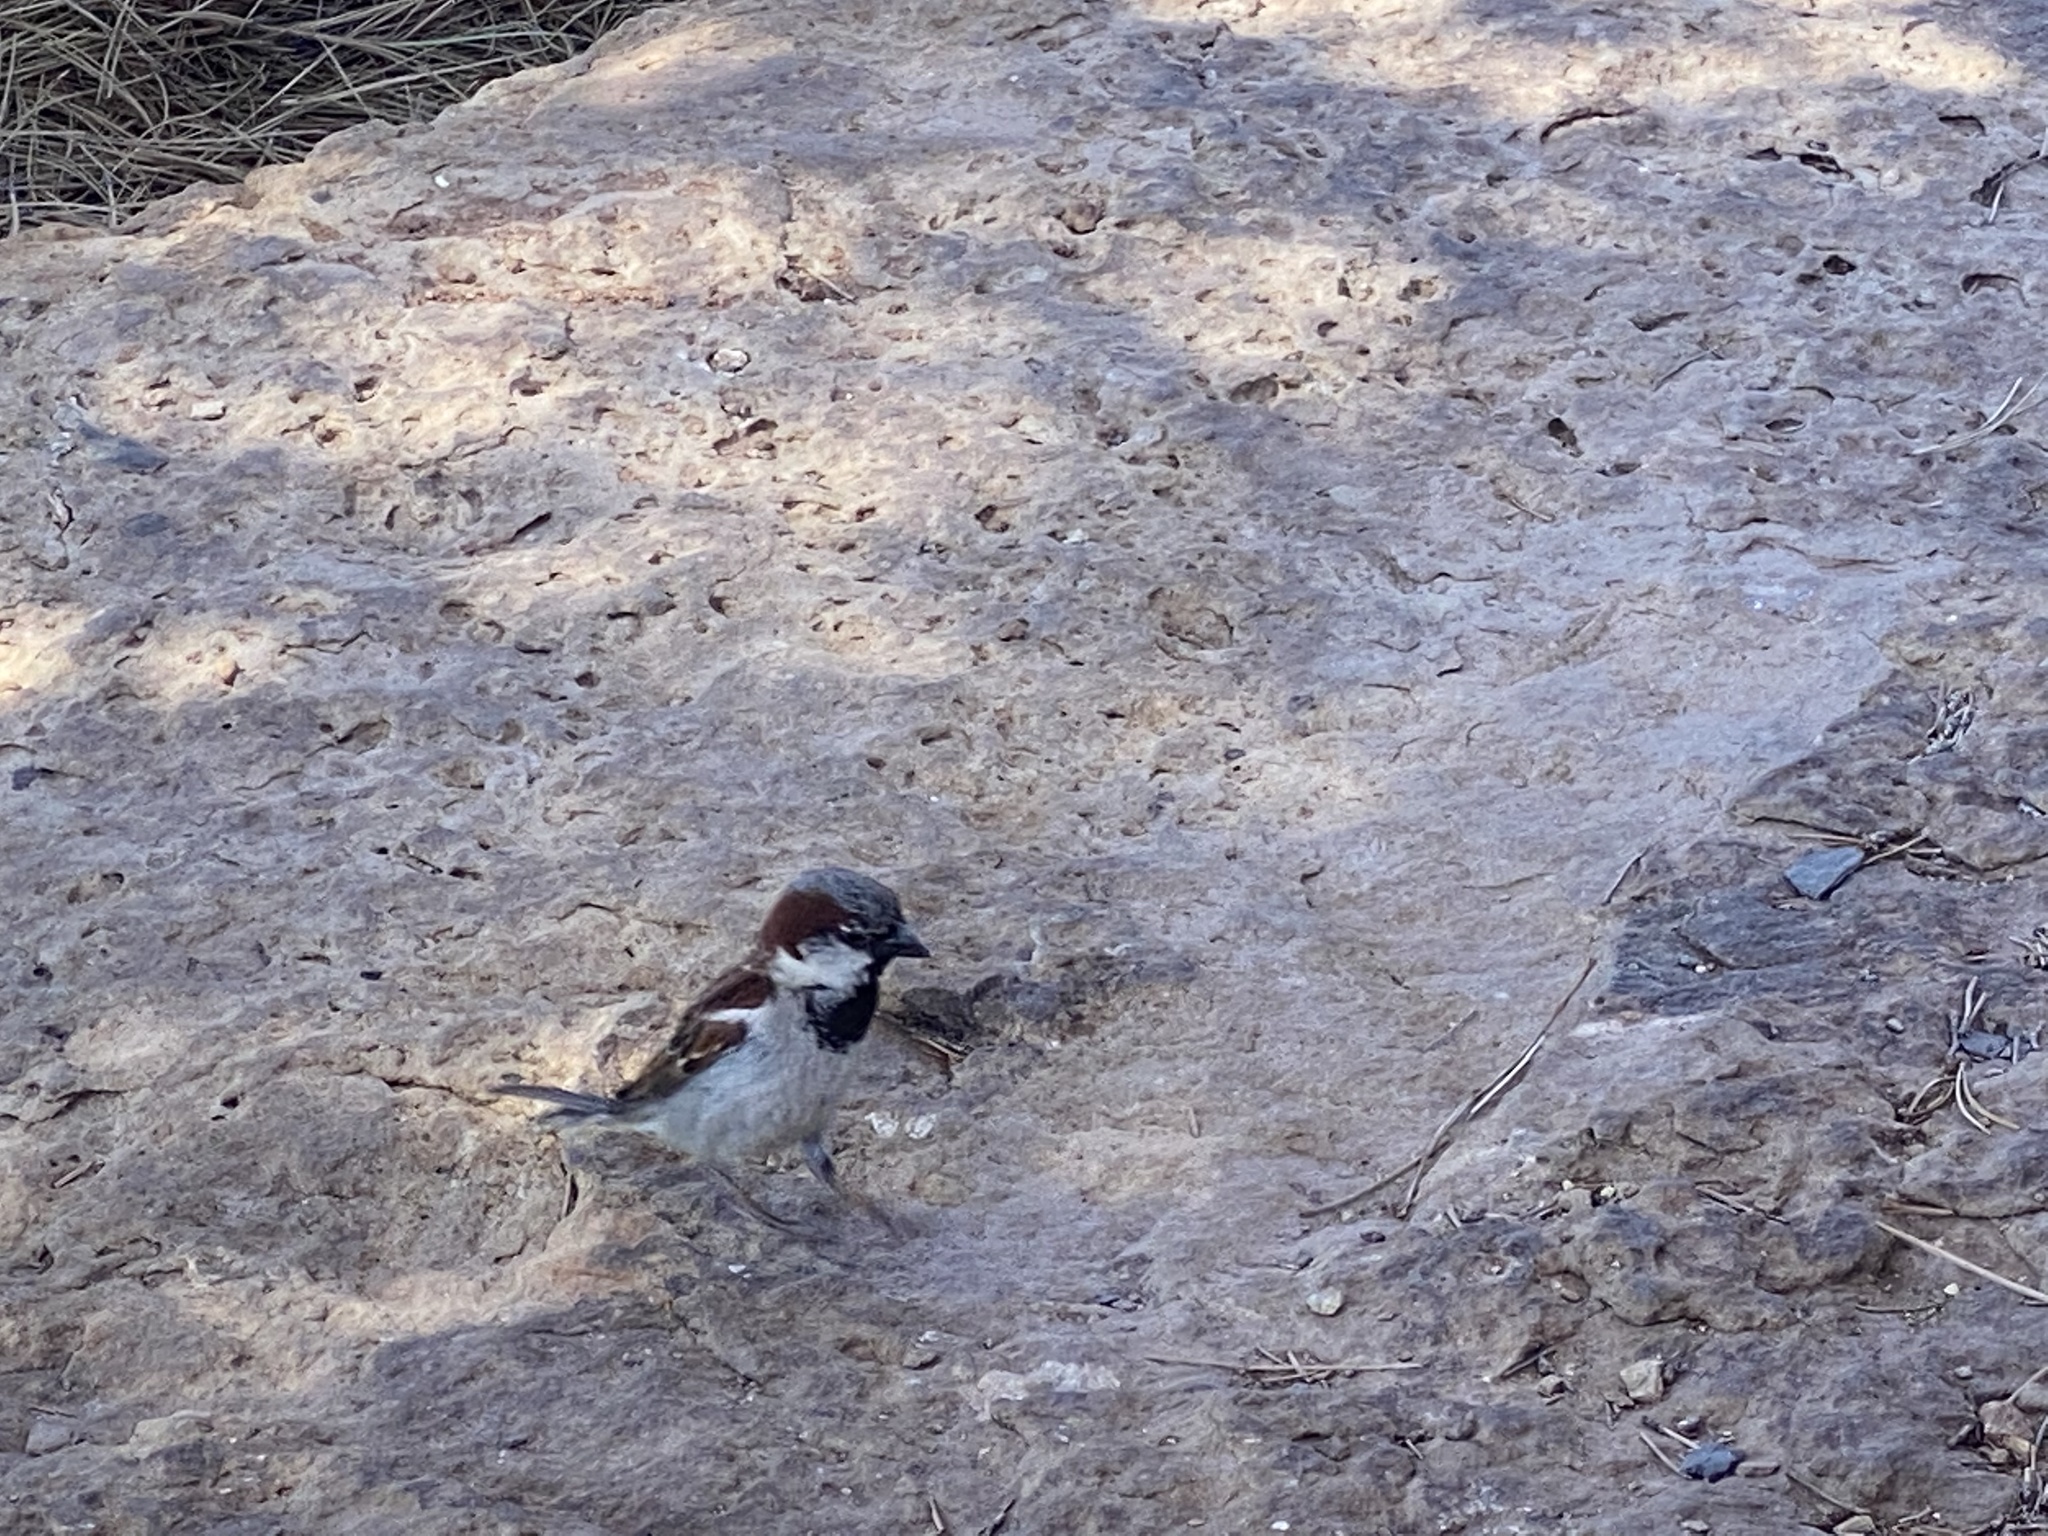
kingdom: Animalia
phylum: Chordata
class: Aves
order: Passeriformes
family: Passeridae
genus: Passer
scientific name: Passer domesticus
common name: House sparrow
